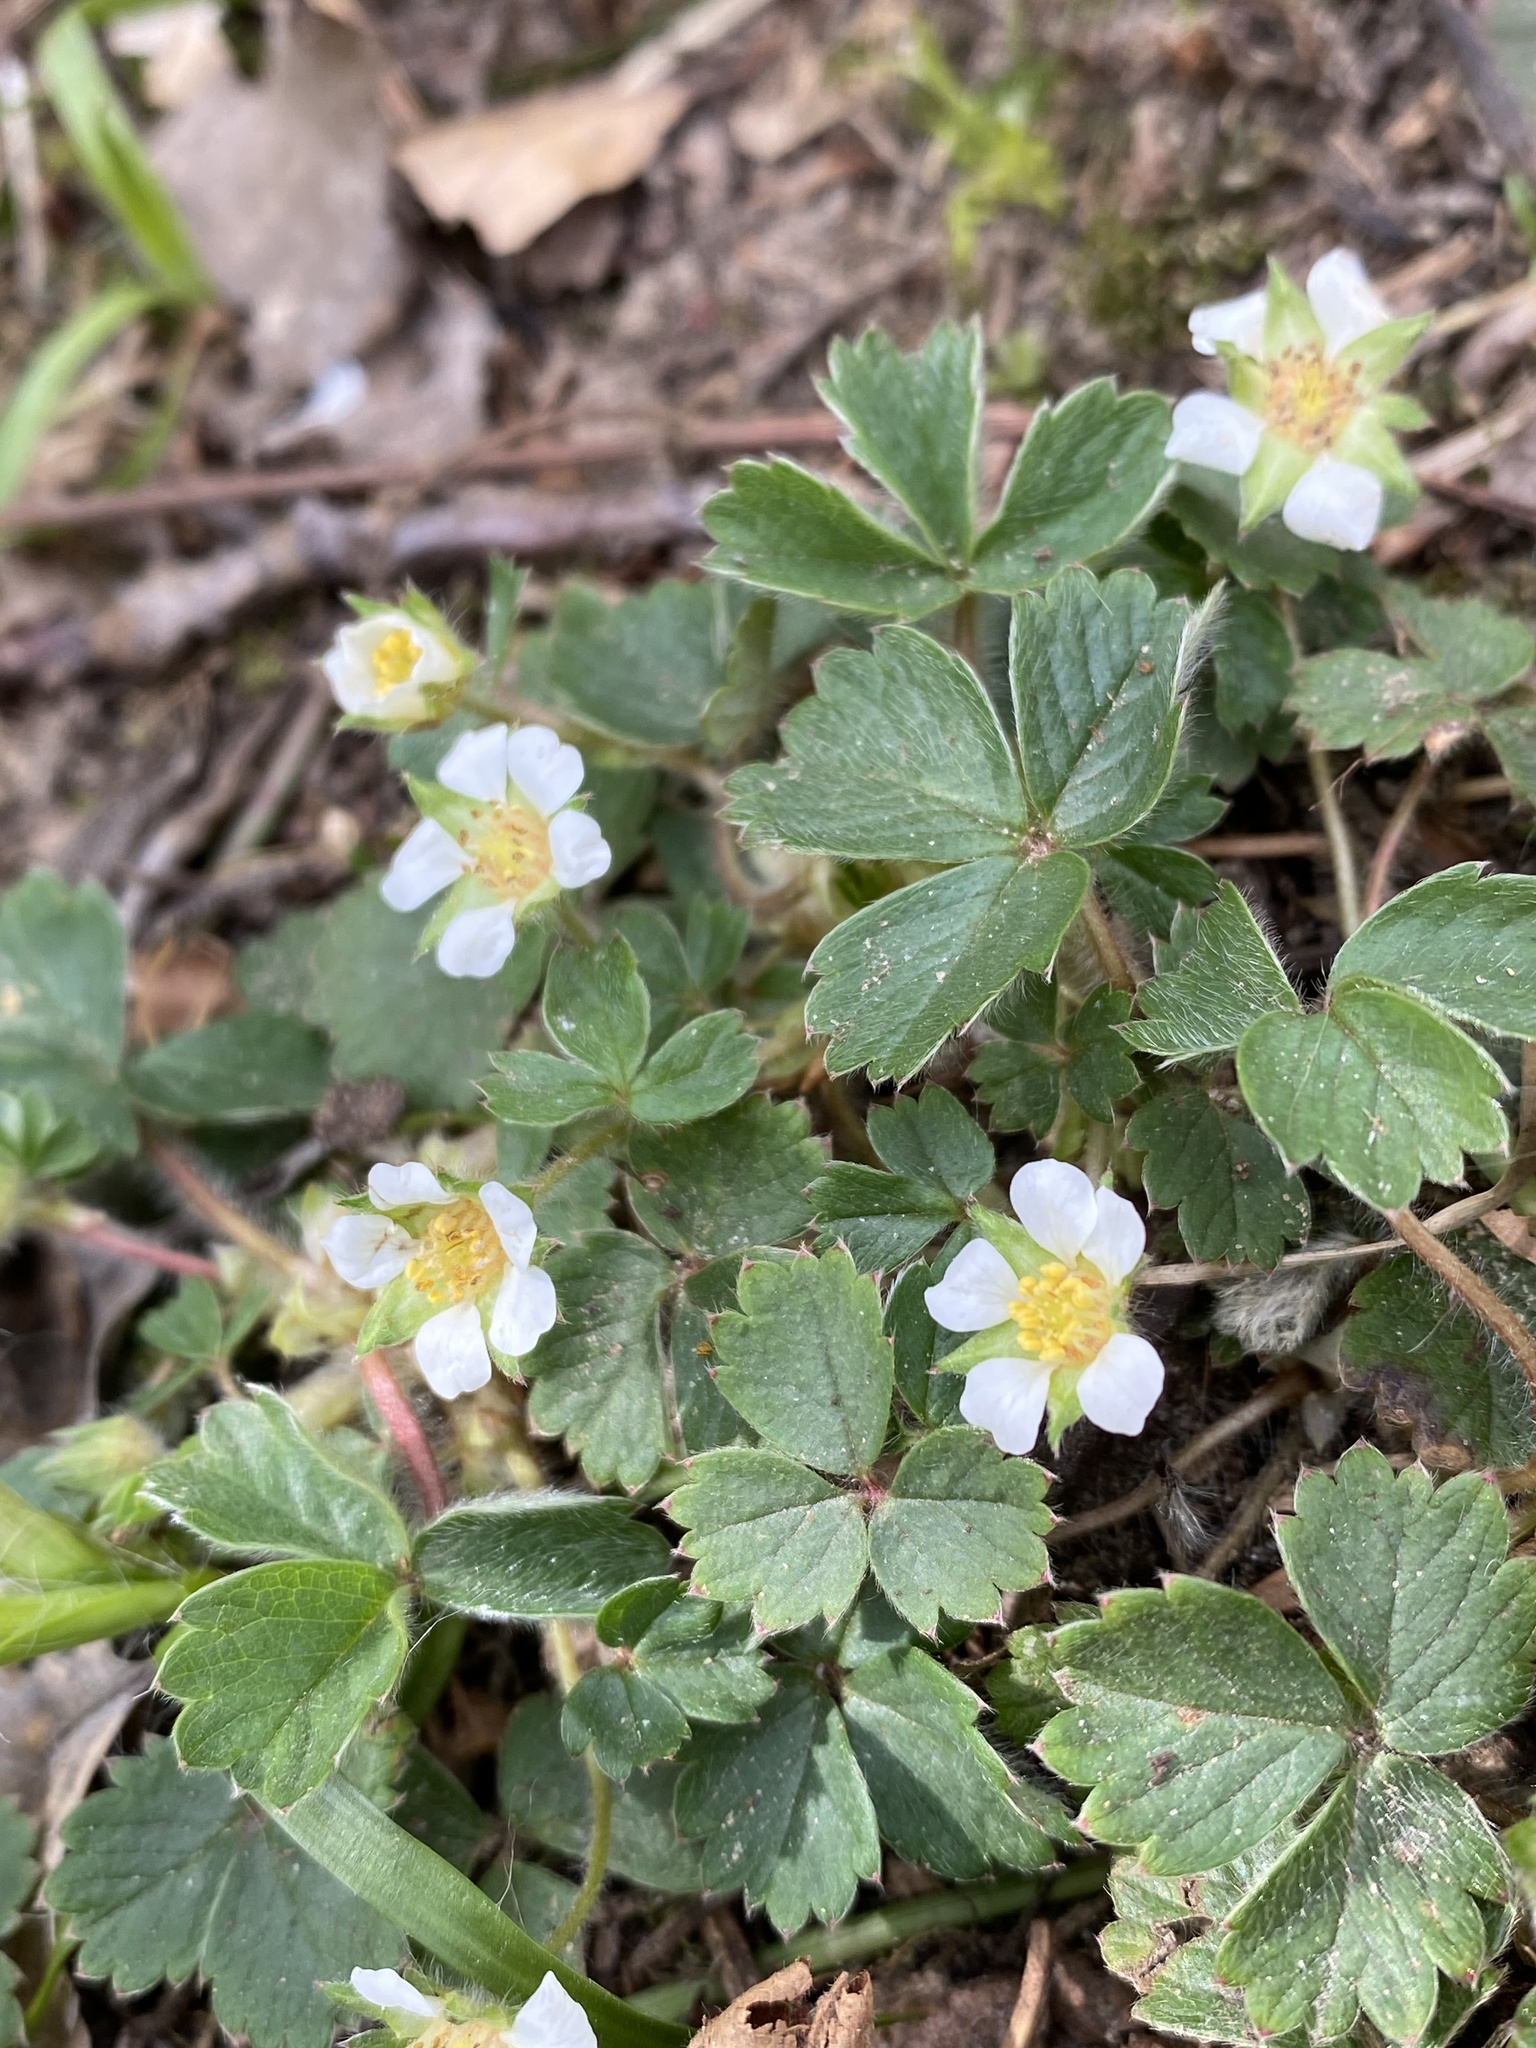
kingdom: Plantae
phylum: Tracheophyta
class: Magnoliopsida
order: Rosales
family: Rosaceae
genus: Potentilla
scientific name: Potentilla sterilis
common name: Barren strawberry
